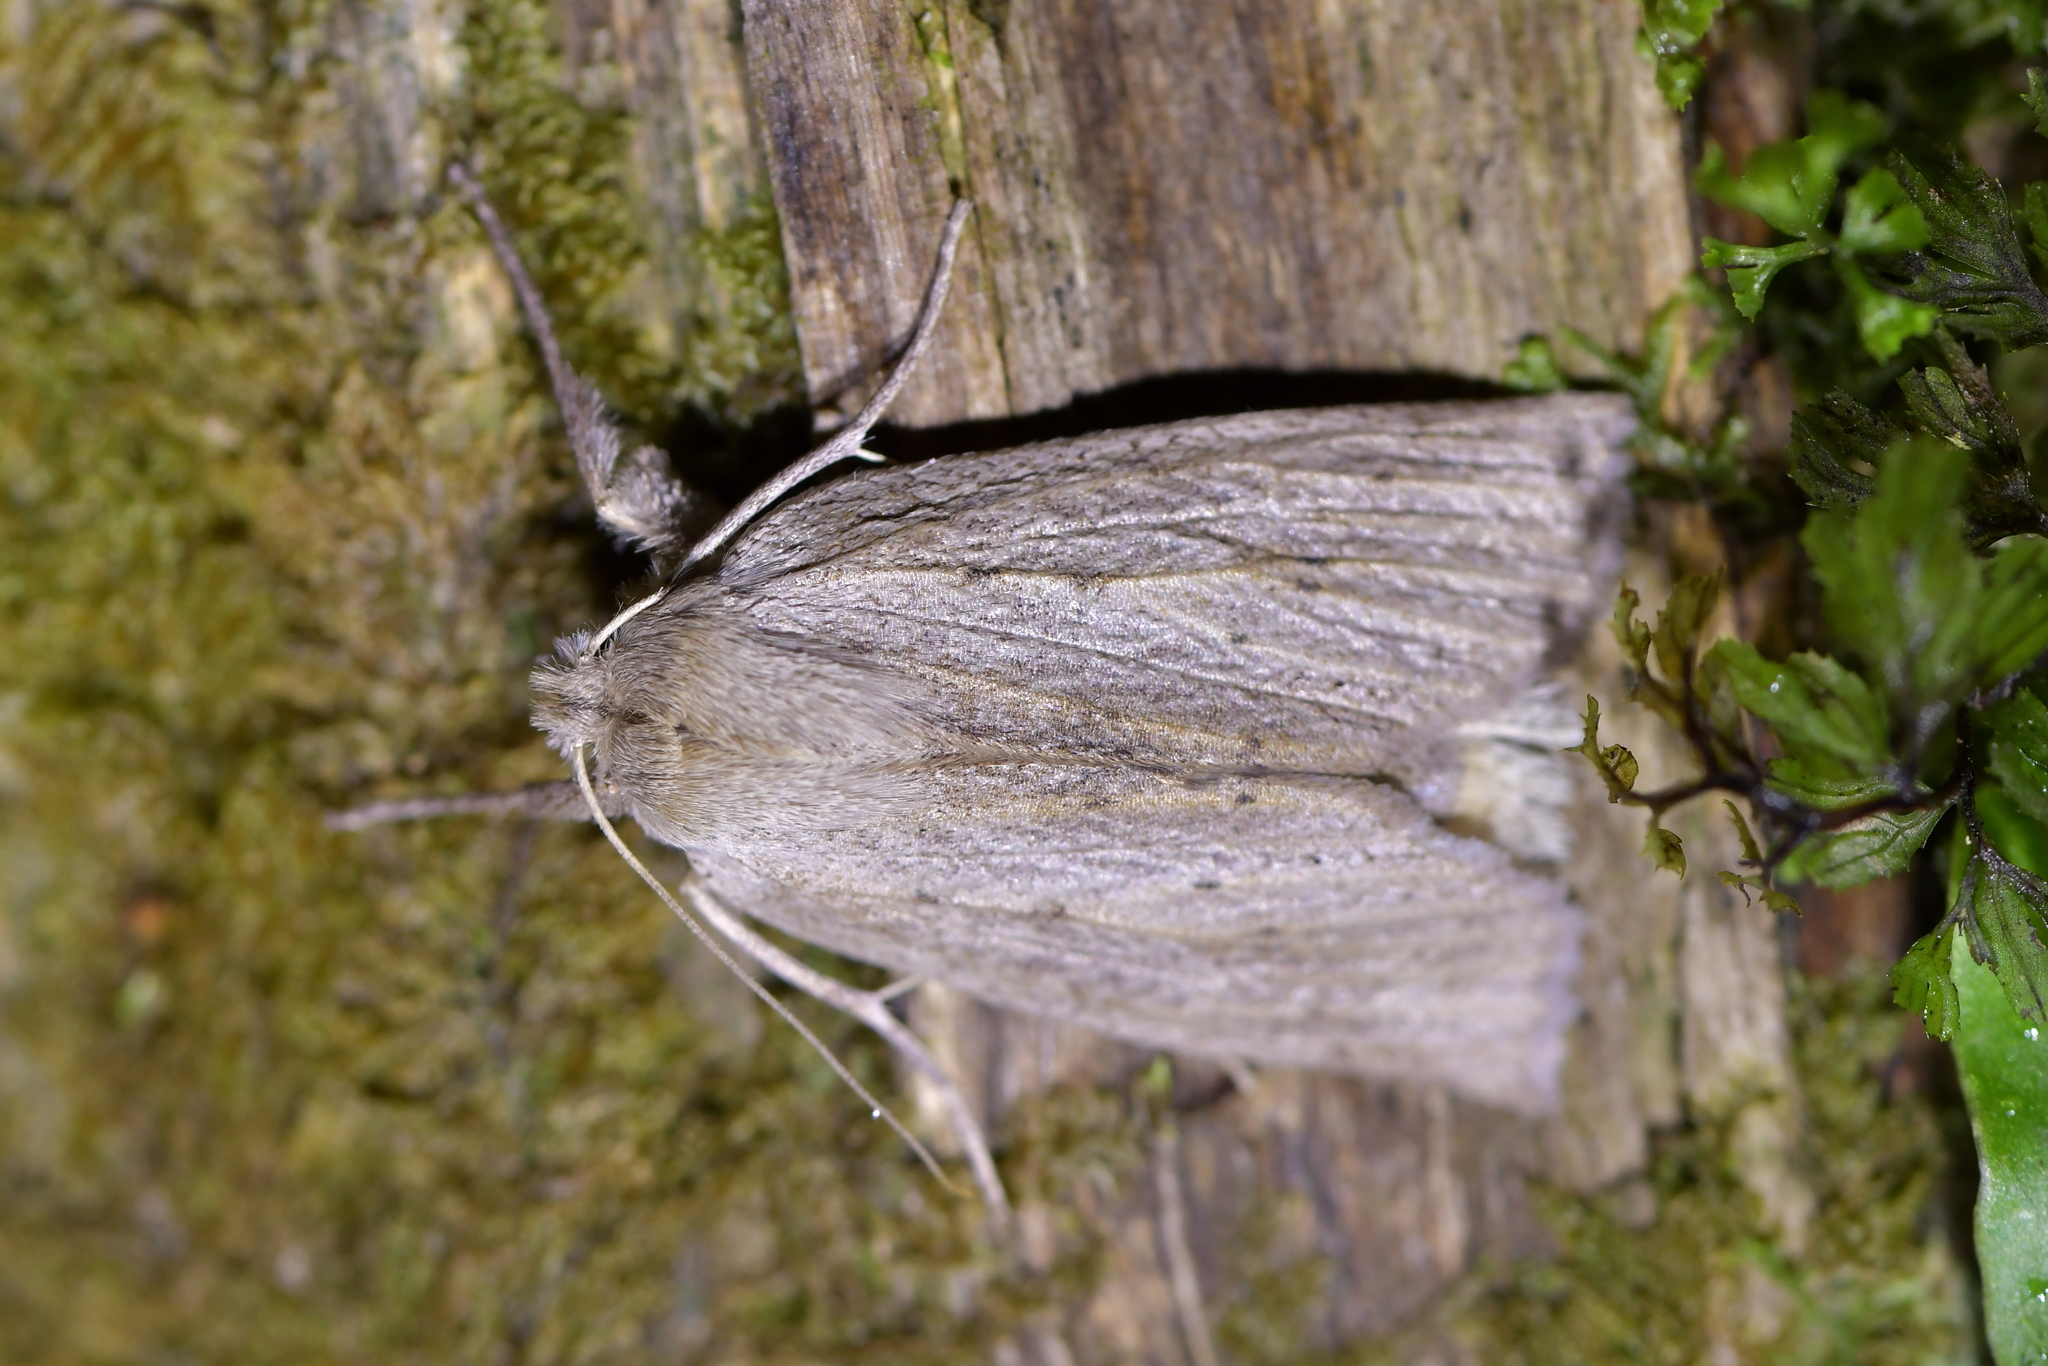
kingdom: Animalia
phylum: Arthropoda
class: Insecta
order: Lepidoptera
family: Geometridae
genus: Declana
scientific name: Declana leptomera
